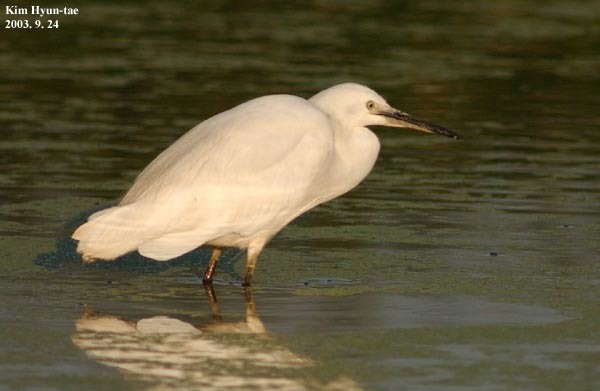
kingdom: Animalia
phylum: Chordata
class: Aves
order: Pelecaniformes
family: Ardeidae
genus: Egretta
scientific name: Egretta garzetta
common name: Little egret
